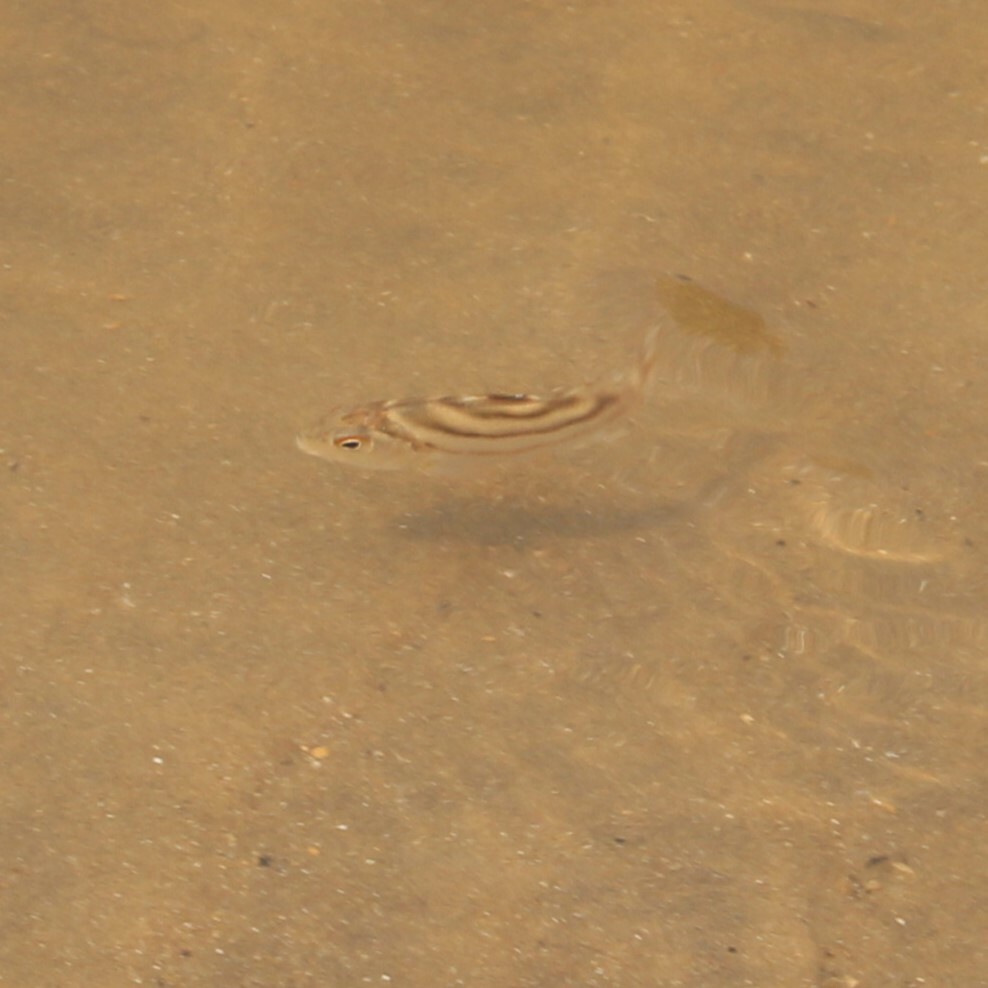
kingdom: Animalia
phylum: Chordata
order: Perciformes
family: Terapontidae
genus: Terapon
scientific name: Terapon jarbua
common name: Jarbua terapon
